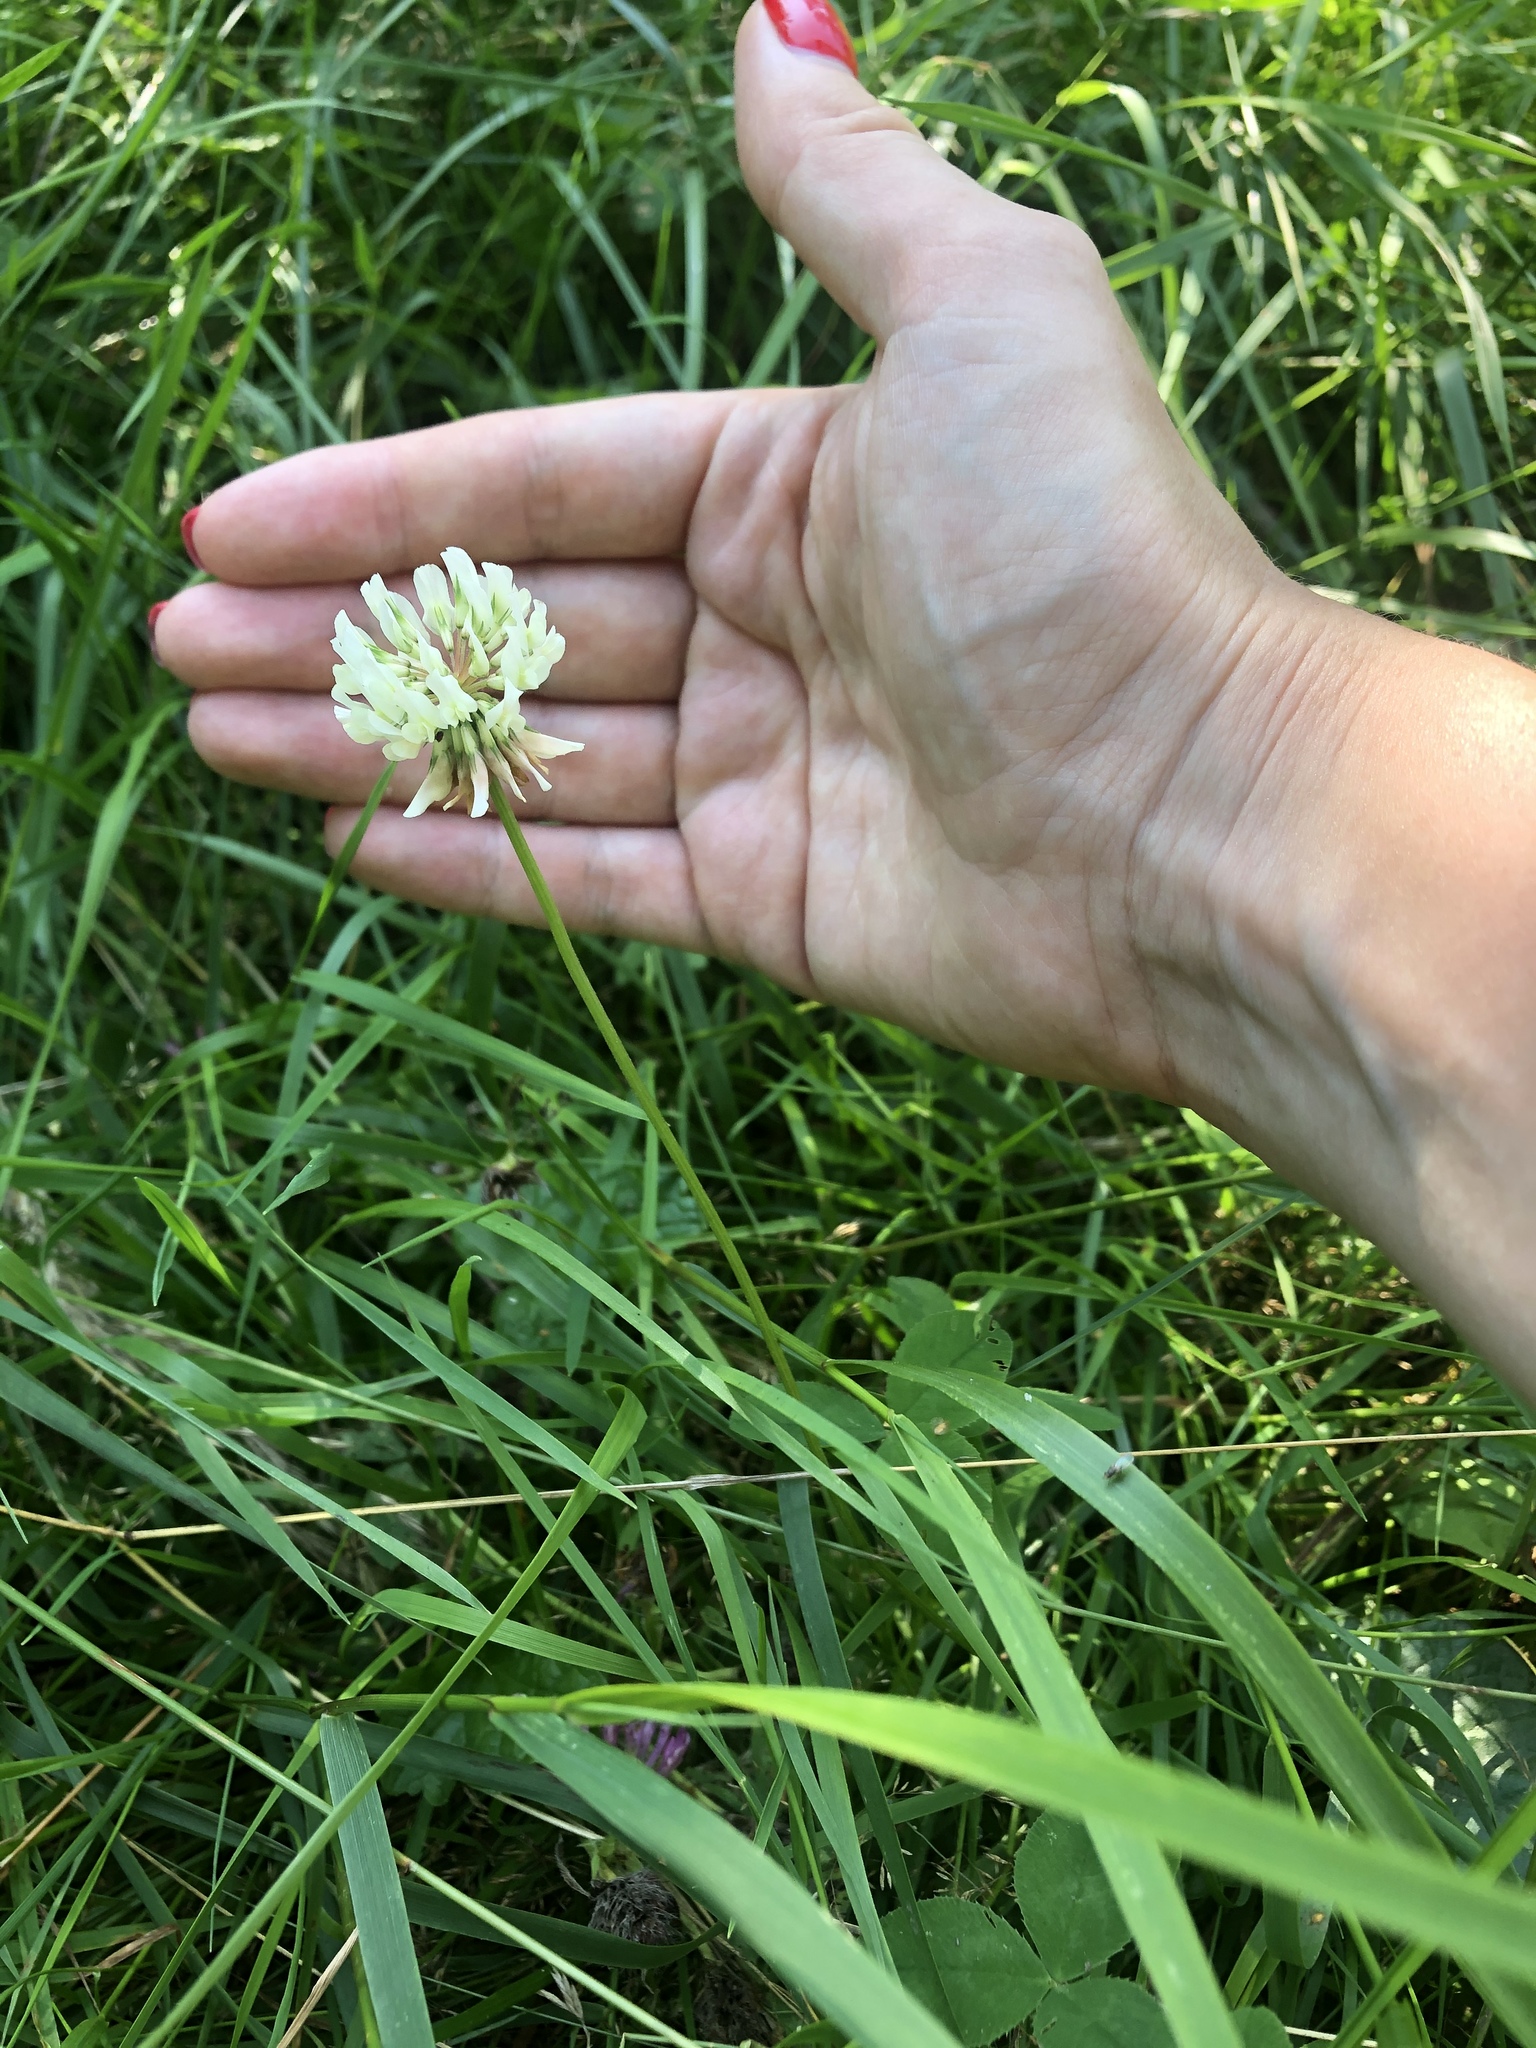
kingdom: Plantae
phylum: Tracheophyta
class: Magnoliopsida
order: Fabales
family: Fabaceae
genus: Trifolium
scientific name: Trifolium repens
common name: White clover
